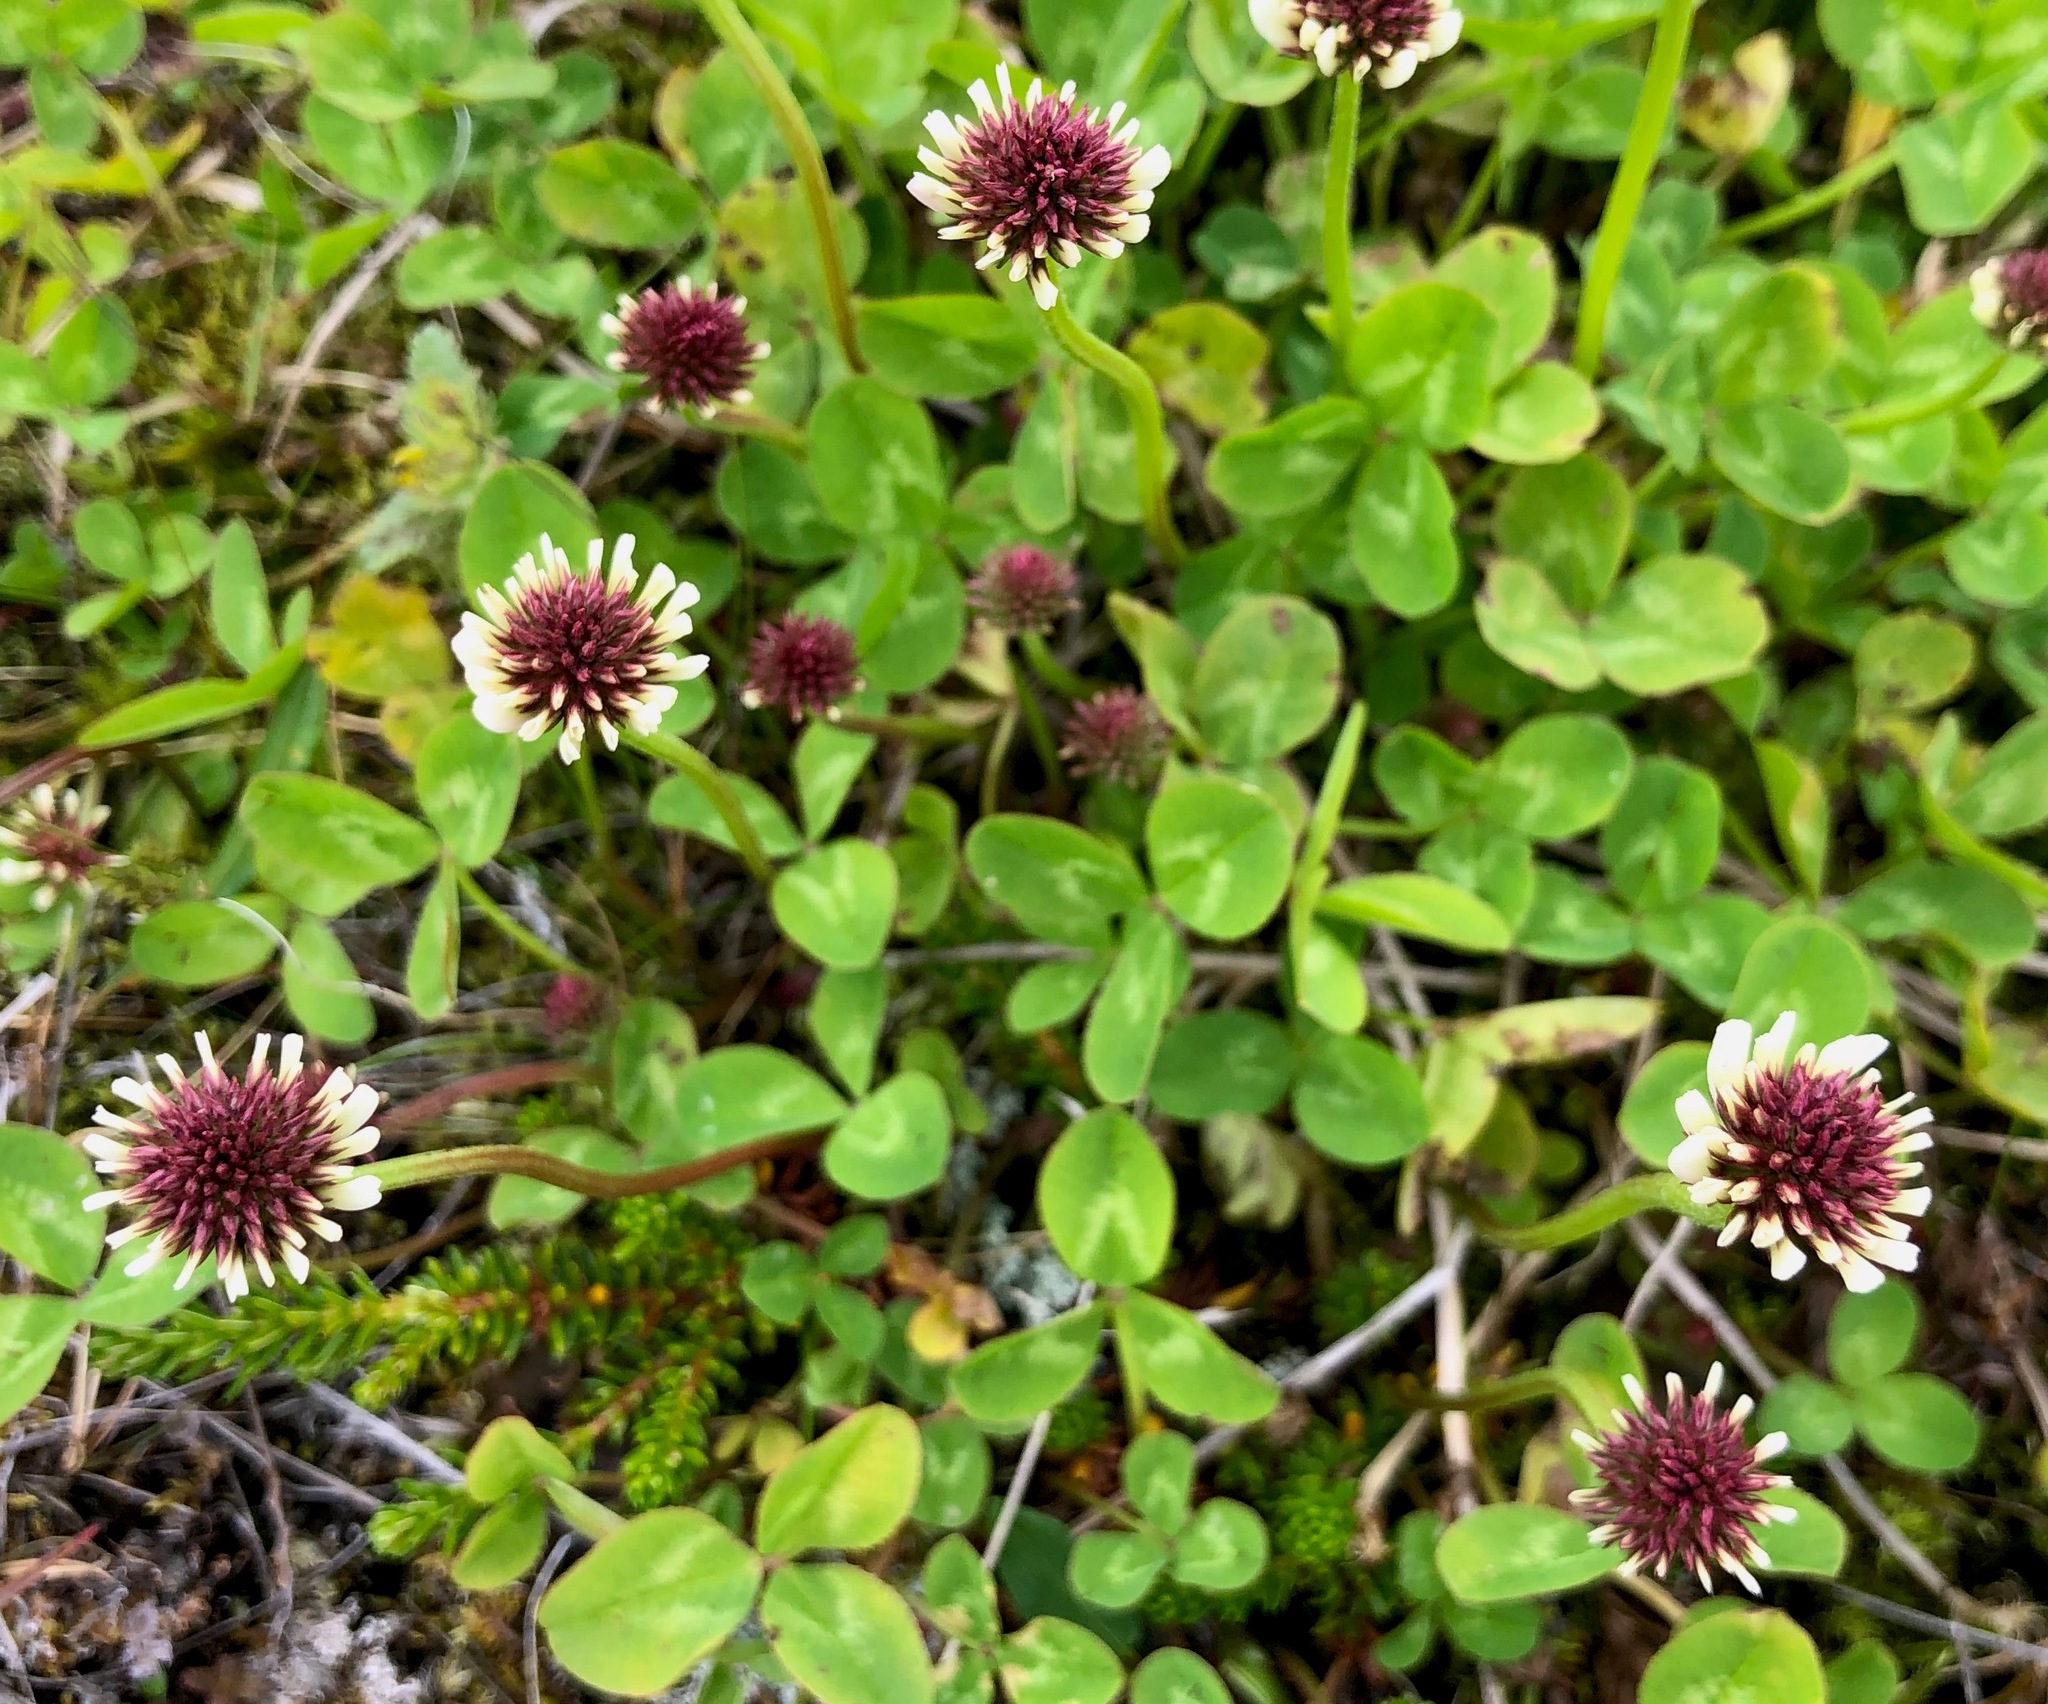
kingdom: Plantae
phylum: Tracheophyta
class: Magnoliopsida
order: Fabales
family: Fabaceae
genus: Trifolium
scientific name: Trifolium repens
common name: White clover
